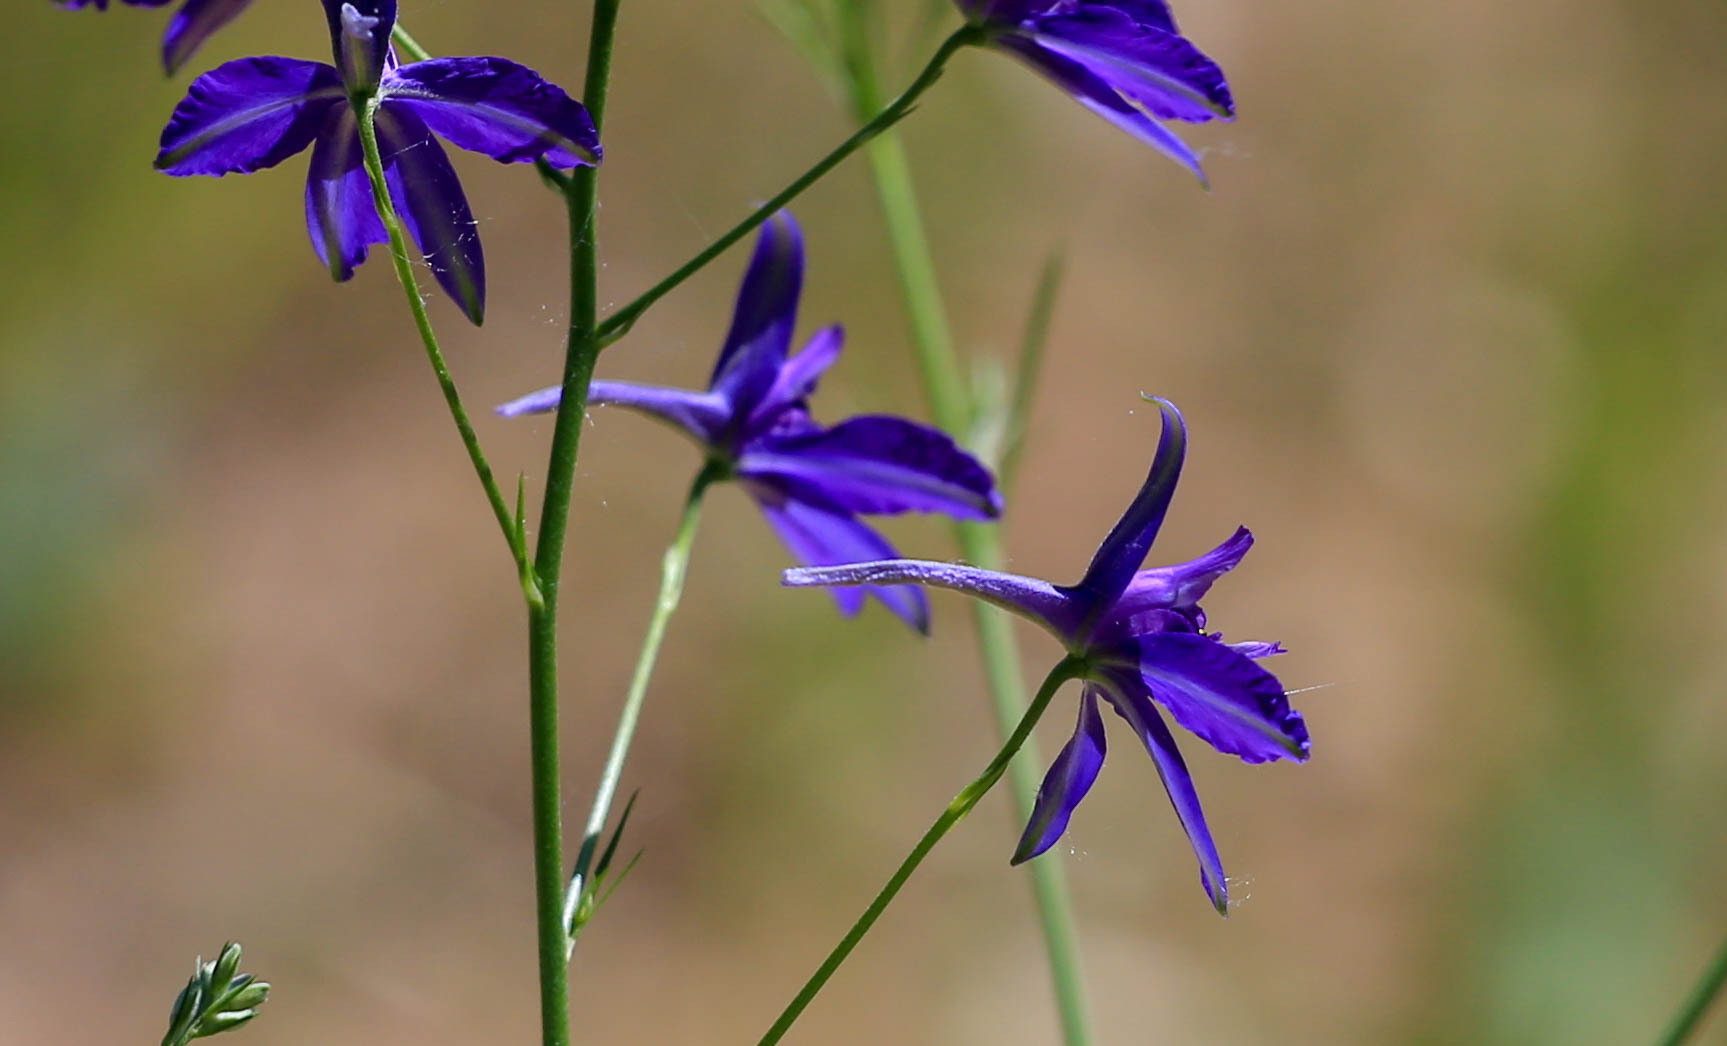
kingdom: Plantae
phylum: Tracheophyta
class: Magnoliopsida
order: Ranunculales
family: Ranunculaceae
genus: Delphinium
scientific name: Delphinium consolida
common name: Branching larkspur
